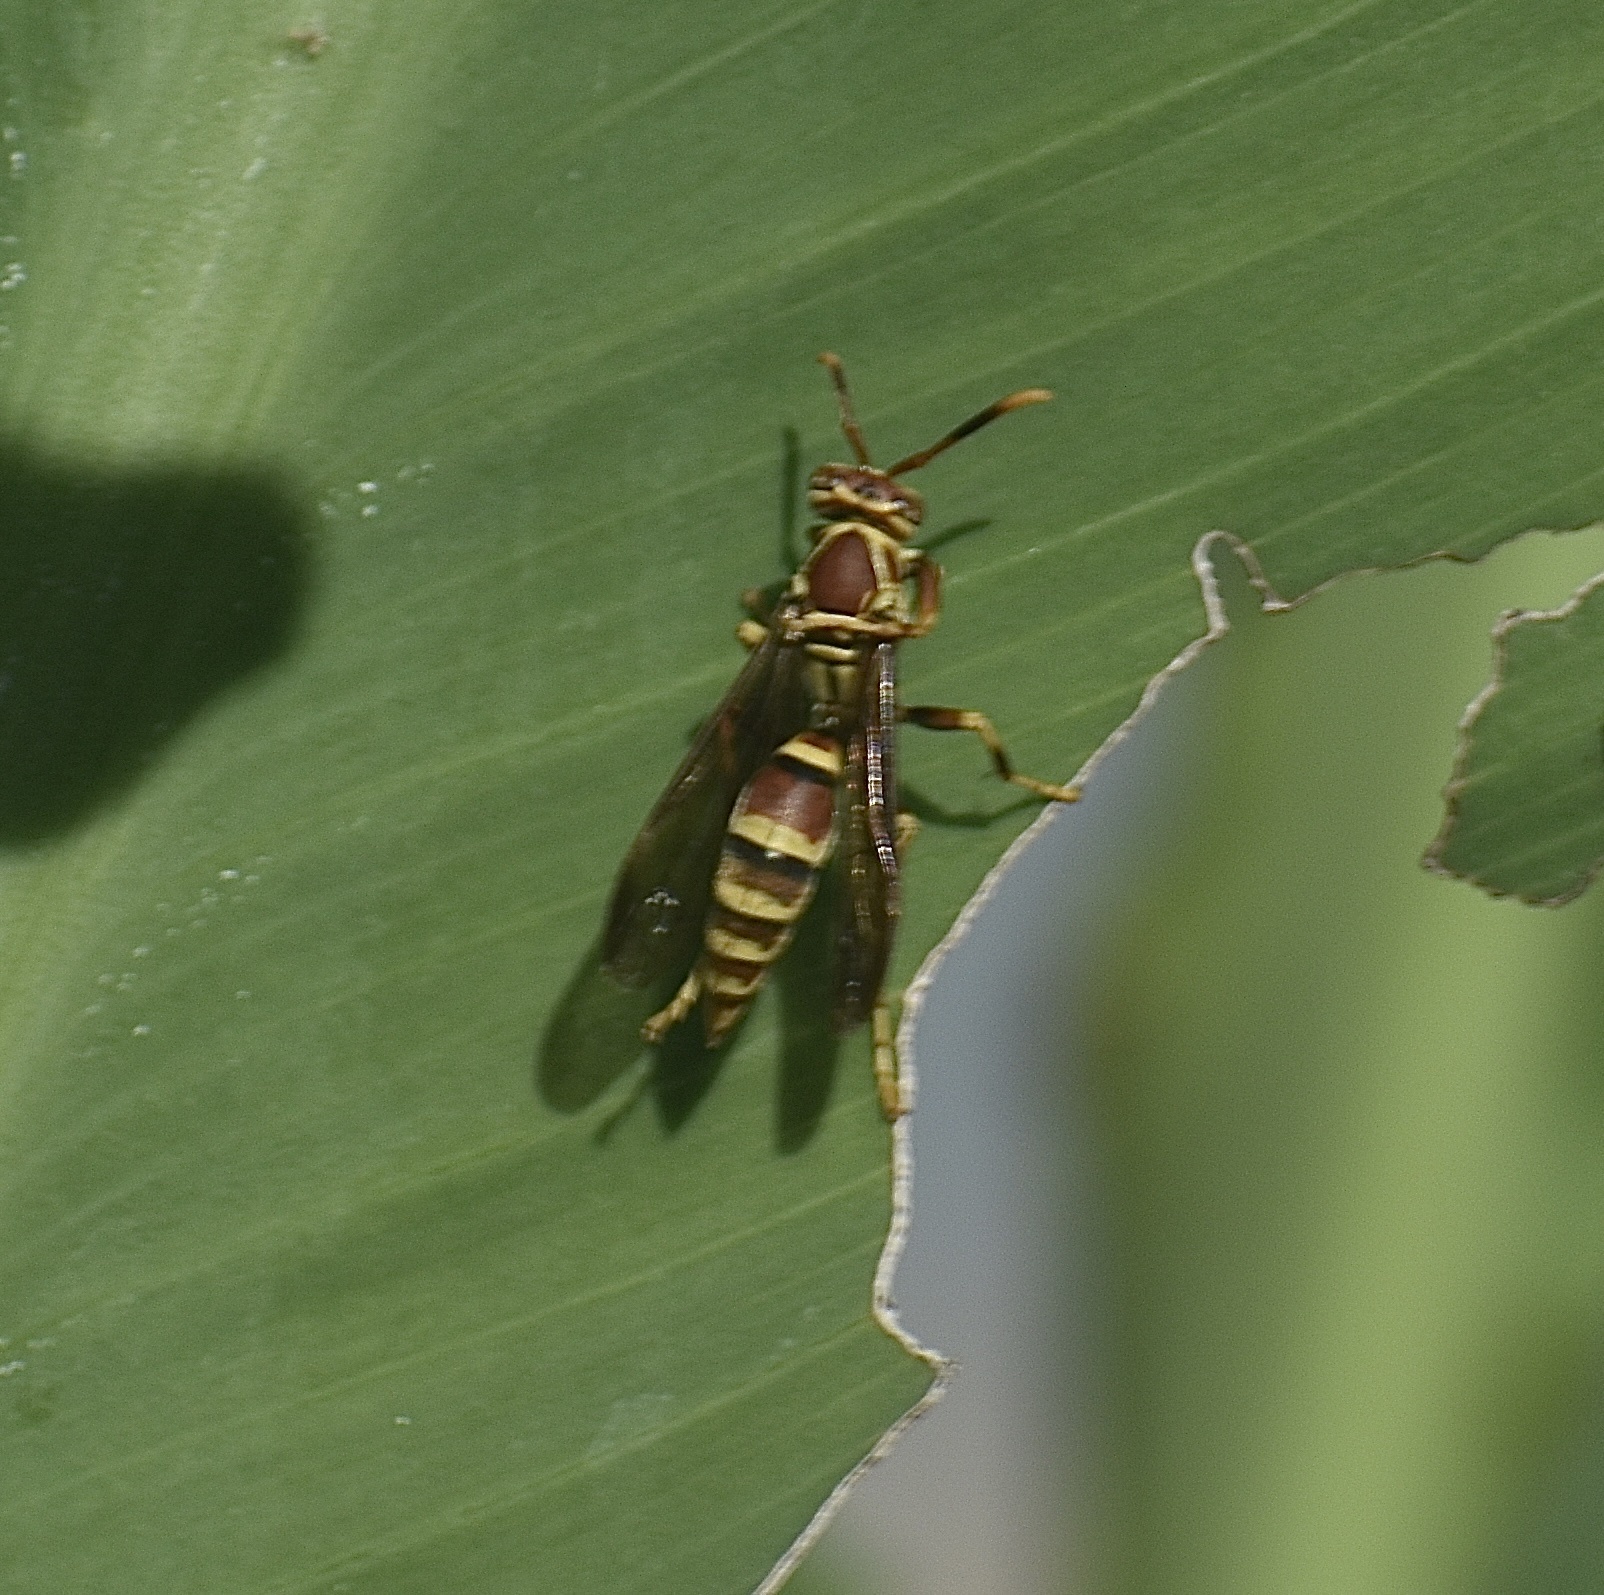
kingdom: Animalia
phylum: Arthropoda
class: Insecta
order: Hymenoptera
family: Eumenidae
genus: Polistes
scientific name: Polistes exclamans
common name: Paper wasp
